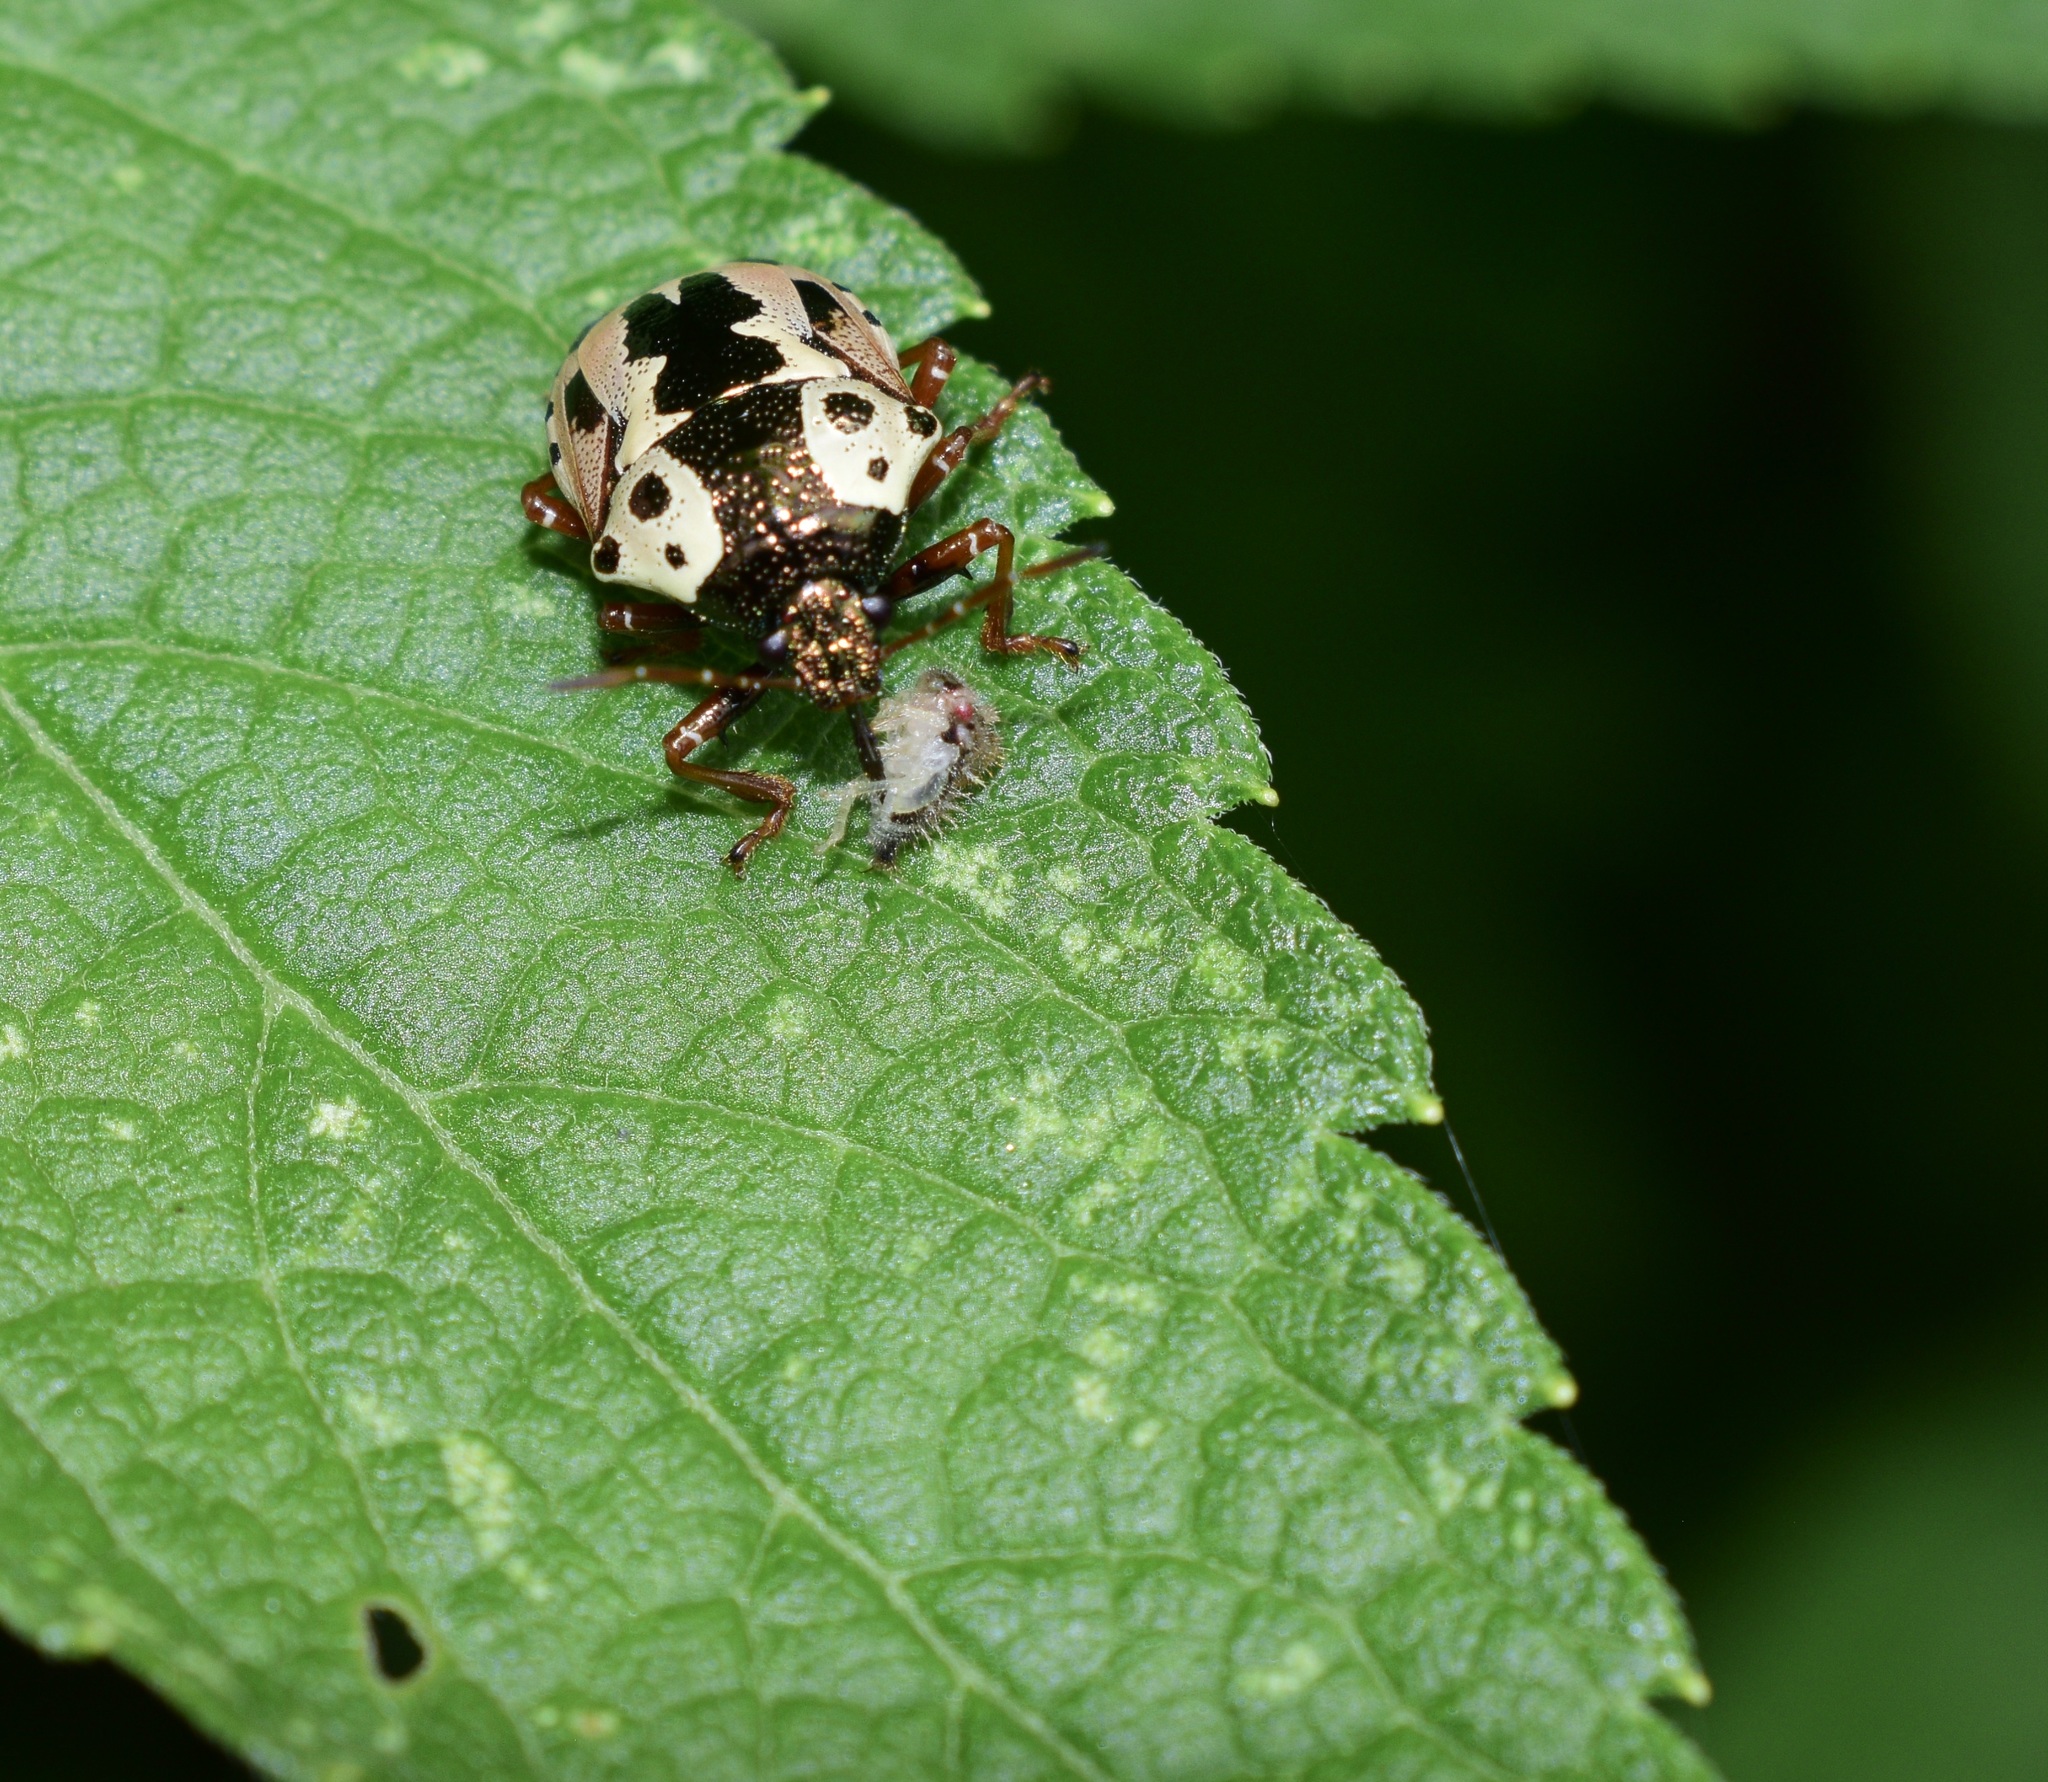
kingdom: Animalia
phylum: Arthropoda
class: Insecta
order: Hemiptera
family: Pentatomidae
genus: Stiretrus
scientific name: Stiretrus anchorago
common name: Anchor stink bug
